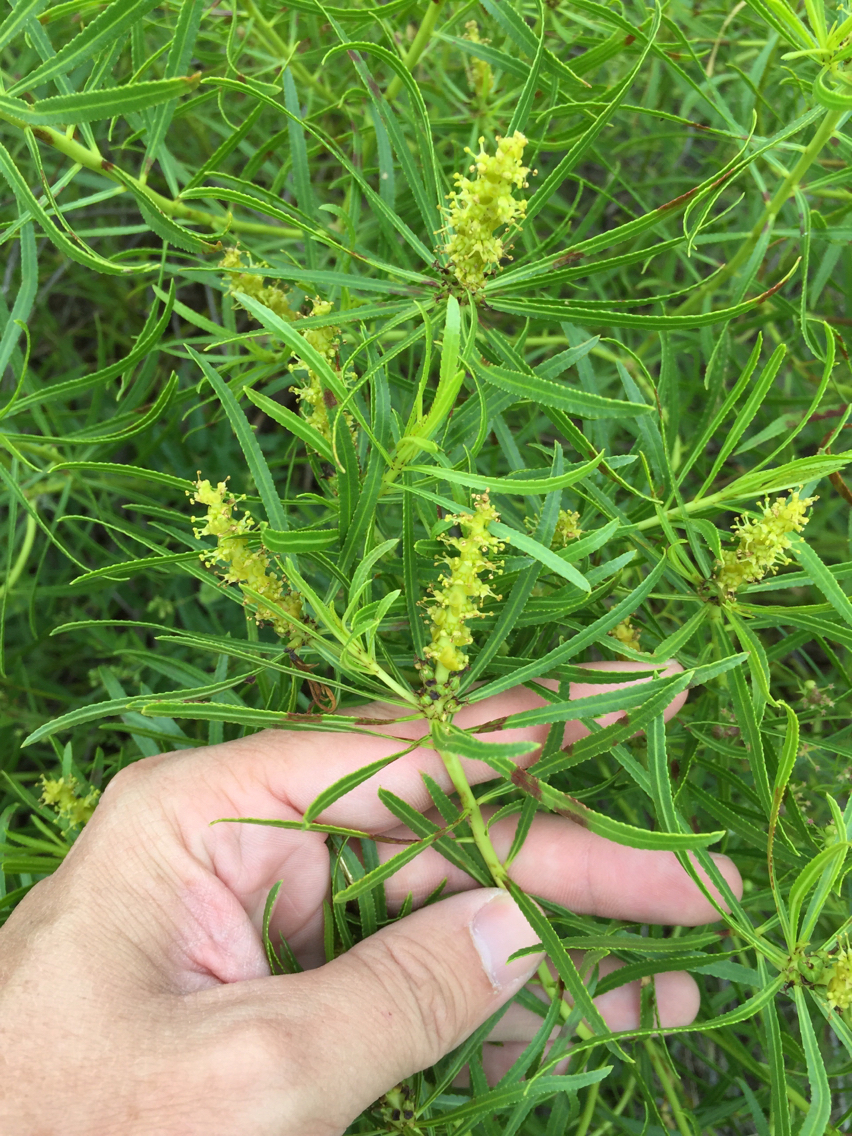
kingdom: Plantae
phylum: Tracheophyta
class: Magnoliopsida
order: Malpighiales
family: Euphorbiaceae
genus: Stillingia
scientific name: Stillingia texana
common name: Texas stillingia
